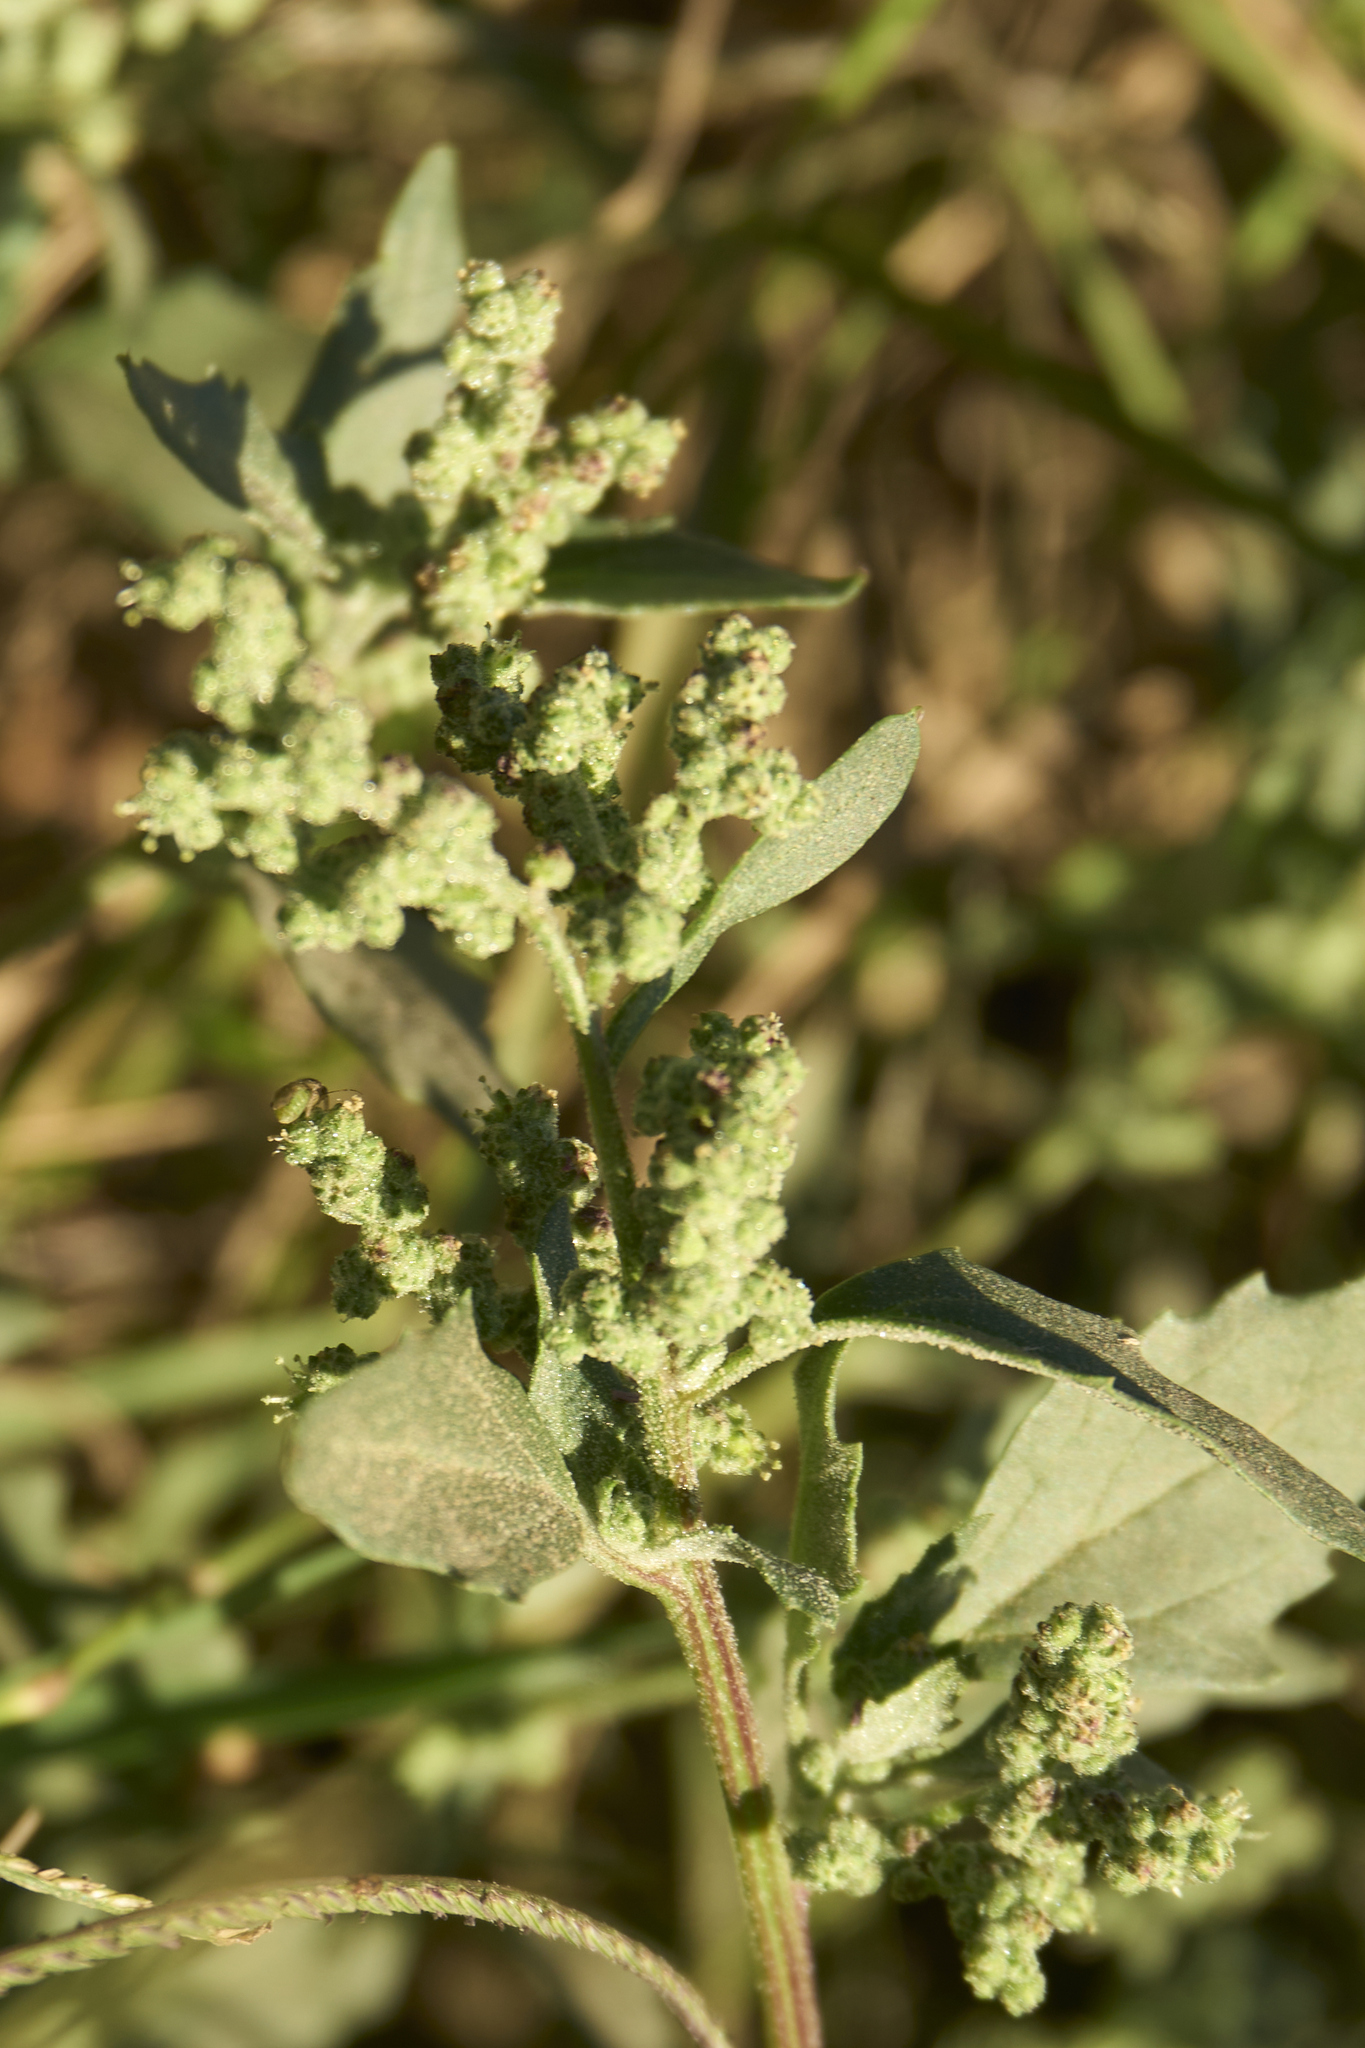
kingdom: Plantae
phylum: Tracheophyta
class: Magnoliopsida
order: Caryophyllales
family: Amaranthaceae
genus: Chenopodiastrum
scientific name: Chenopodiastrum murale
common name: Sowbane
